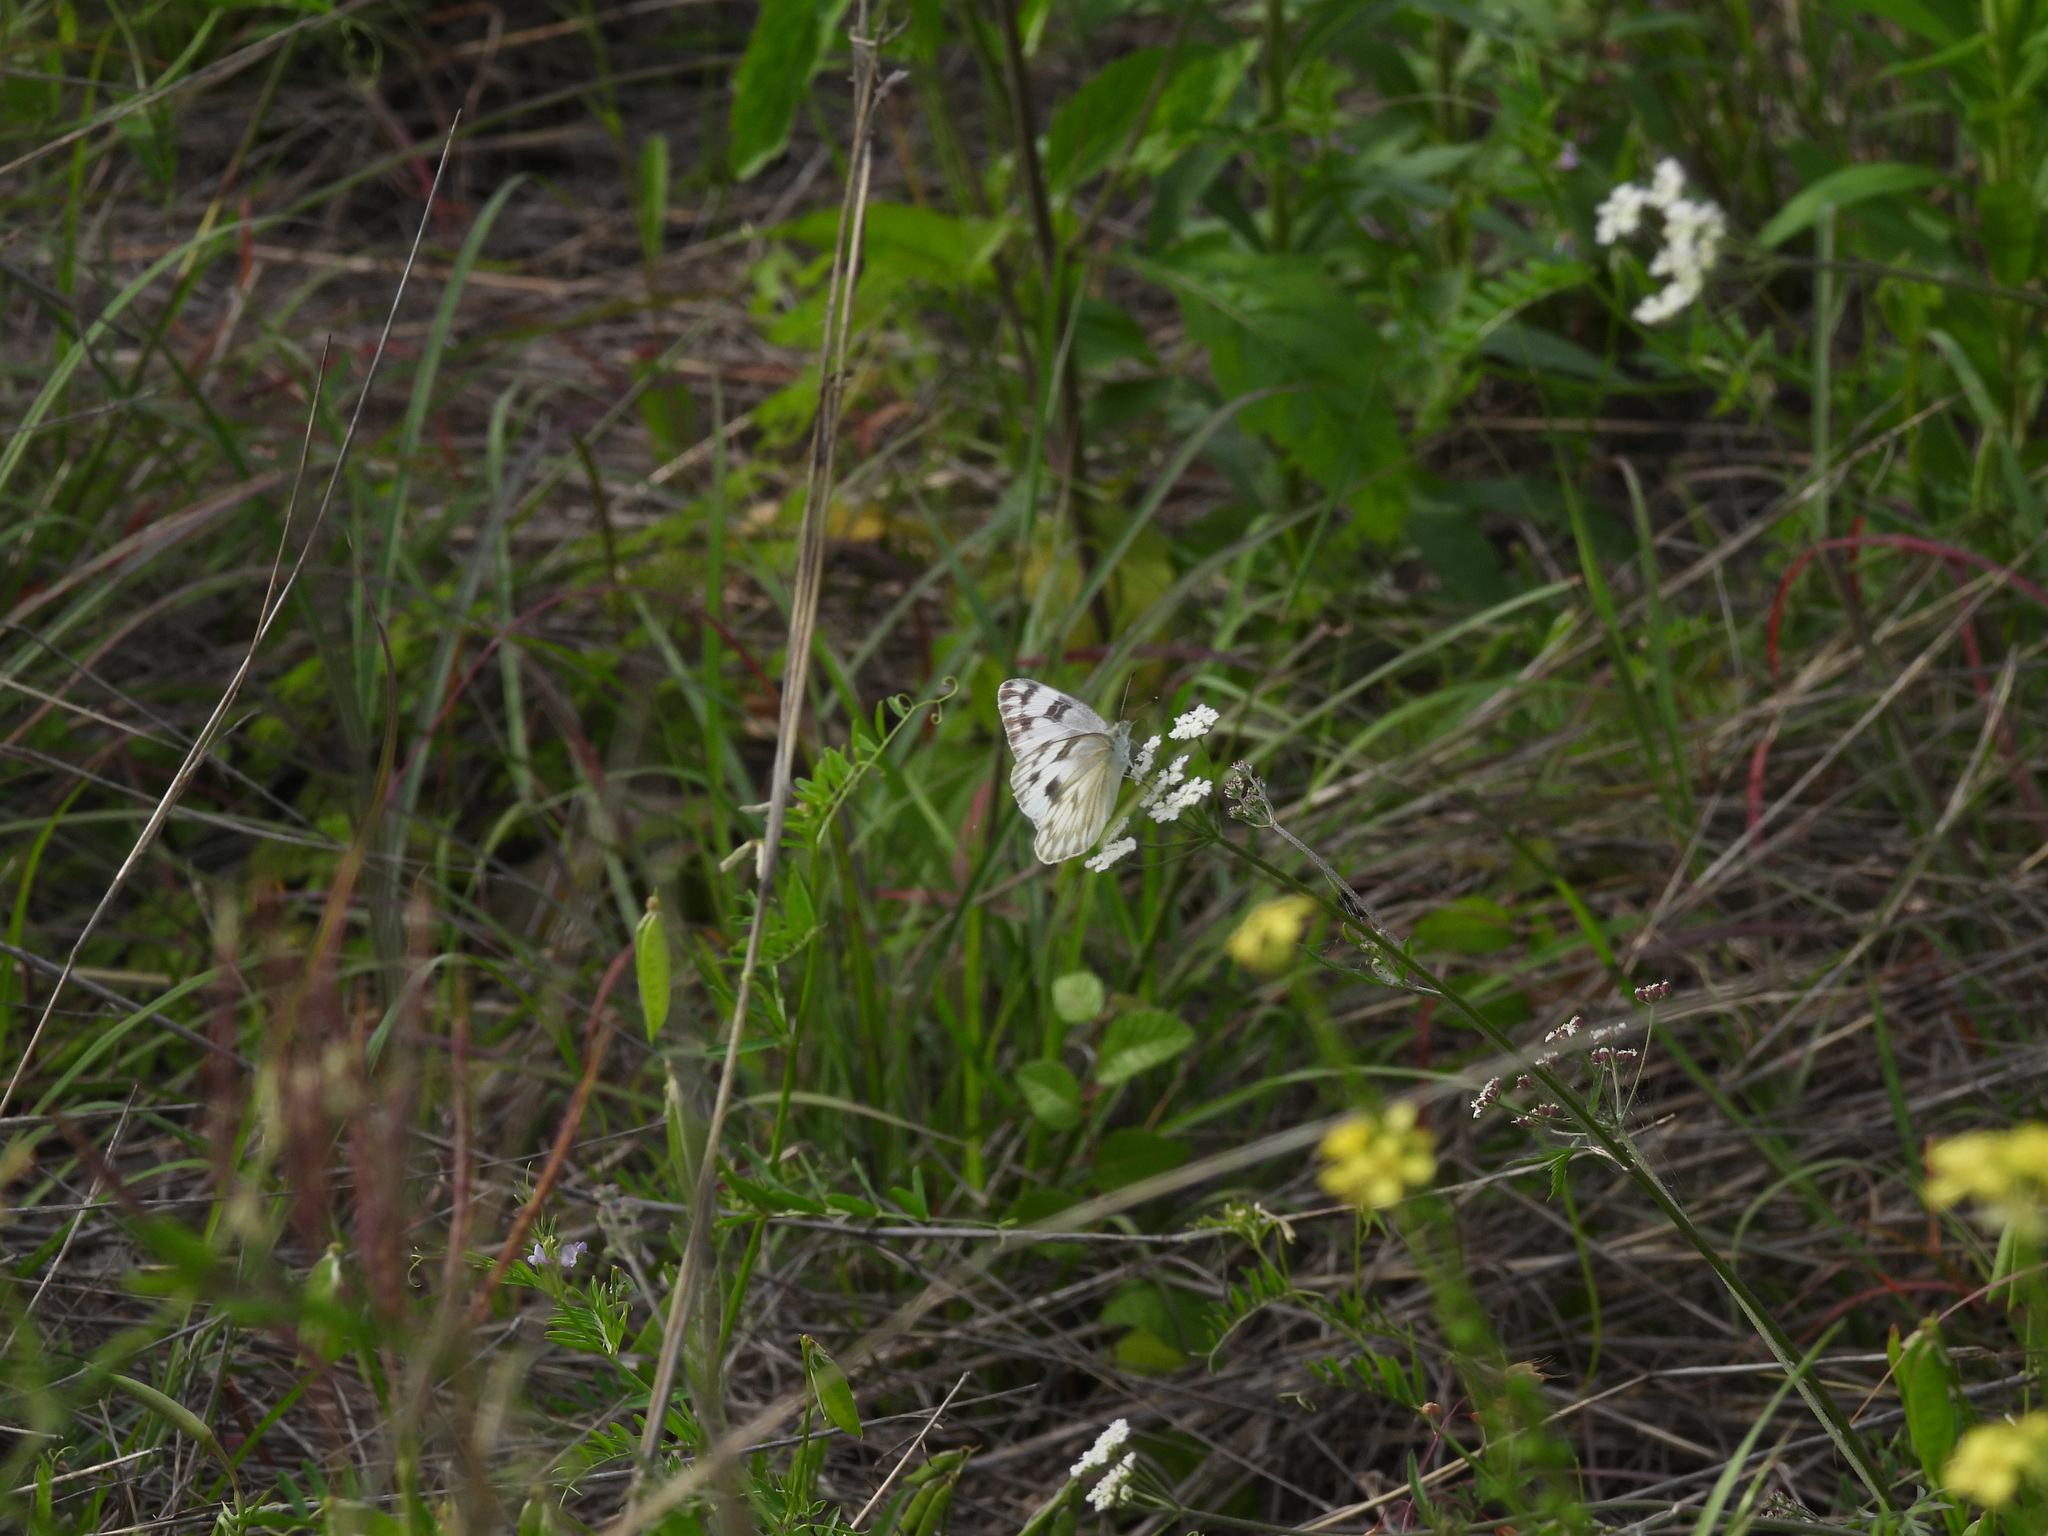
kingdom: Animalia
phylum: Arthropoda
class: Insecta
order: Lepidoptera
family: Pieridae
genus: Pontia
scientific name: Pontia protodice
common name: Checkered white
